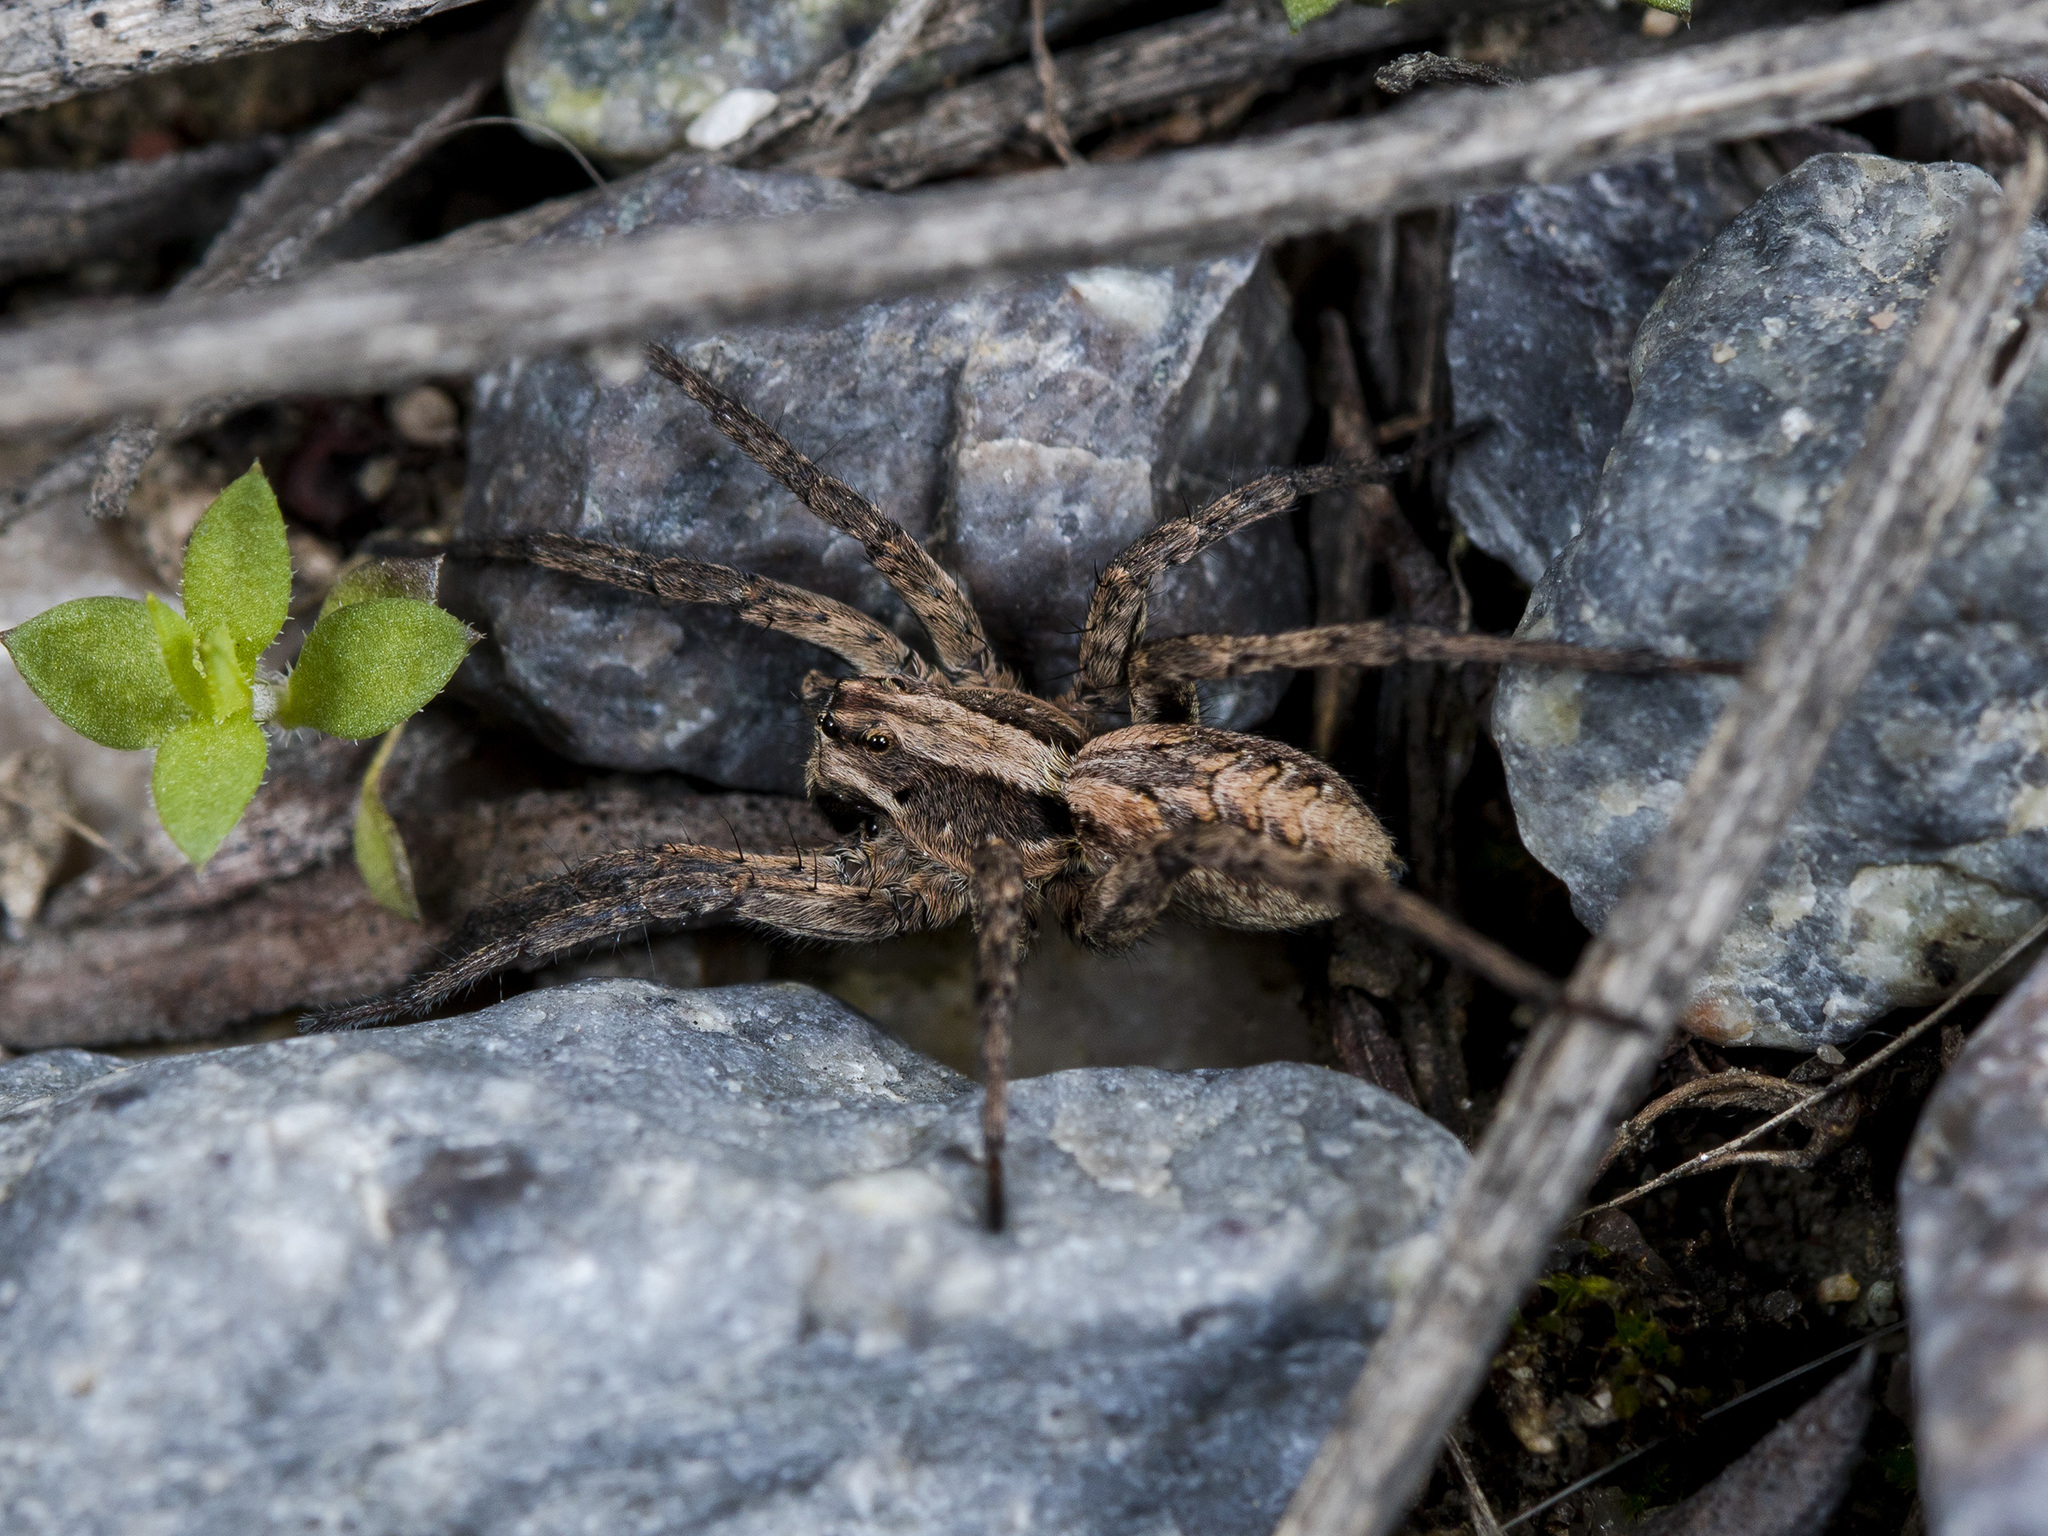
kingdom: Animalia
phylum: Arthropoda
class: Arachnida
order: Araneae
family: Lycosidae
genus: Alopecosa
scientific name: Alopecosa cursor
